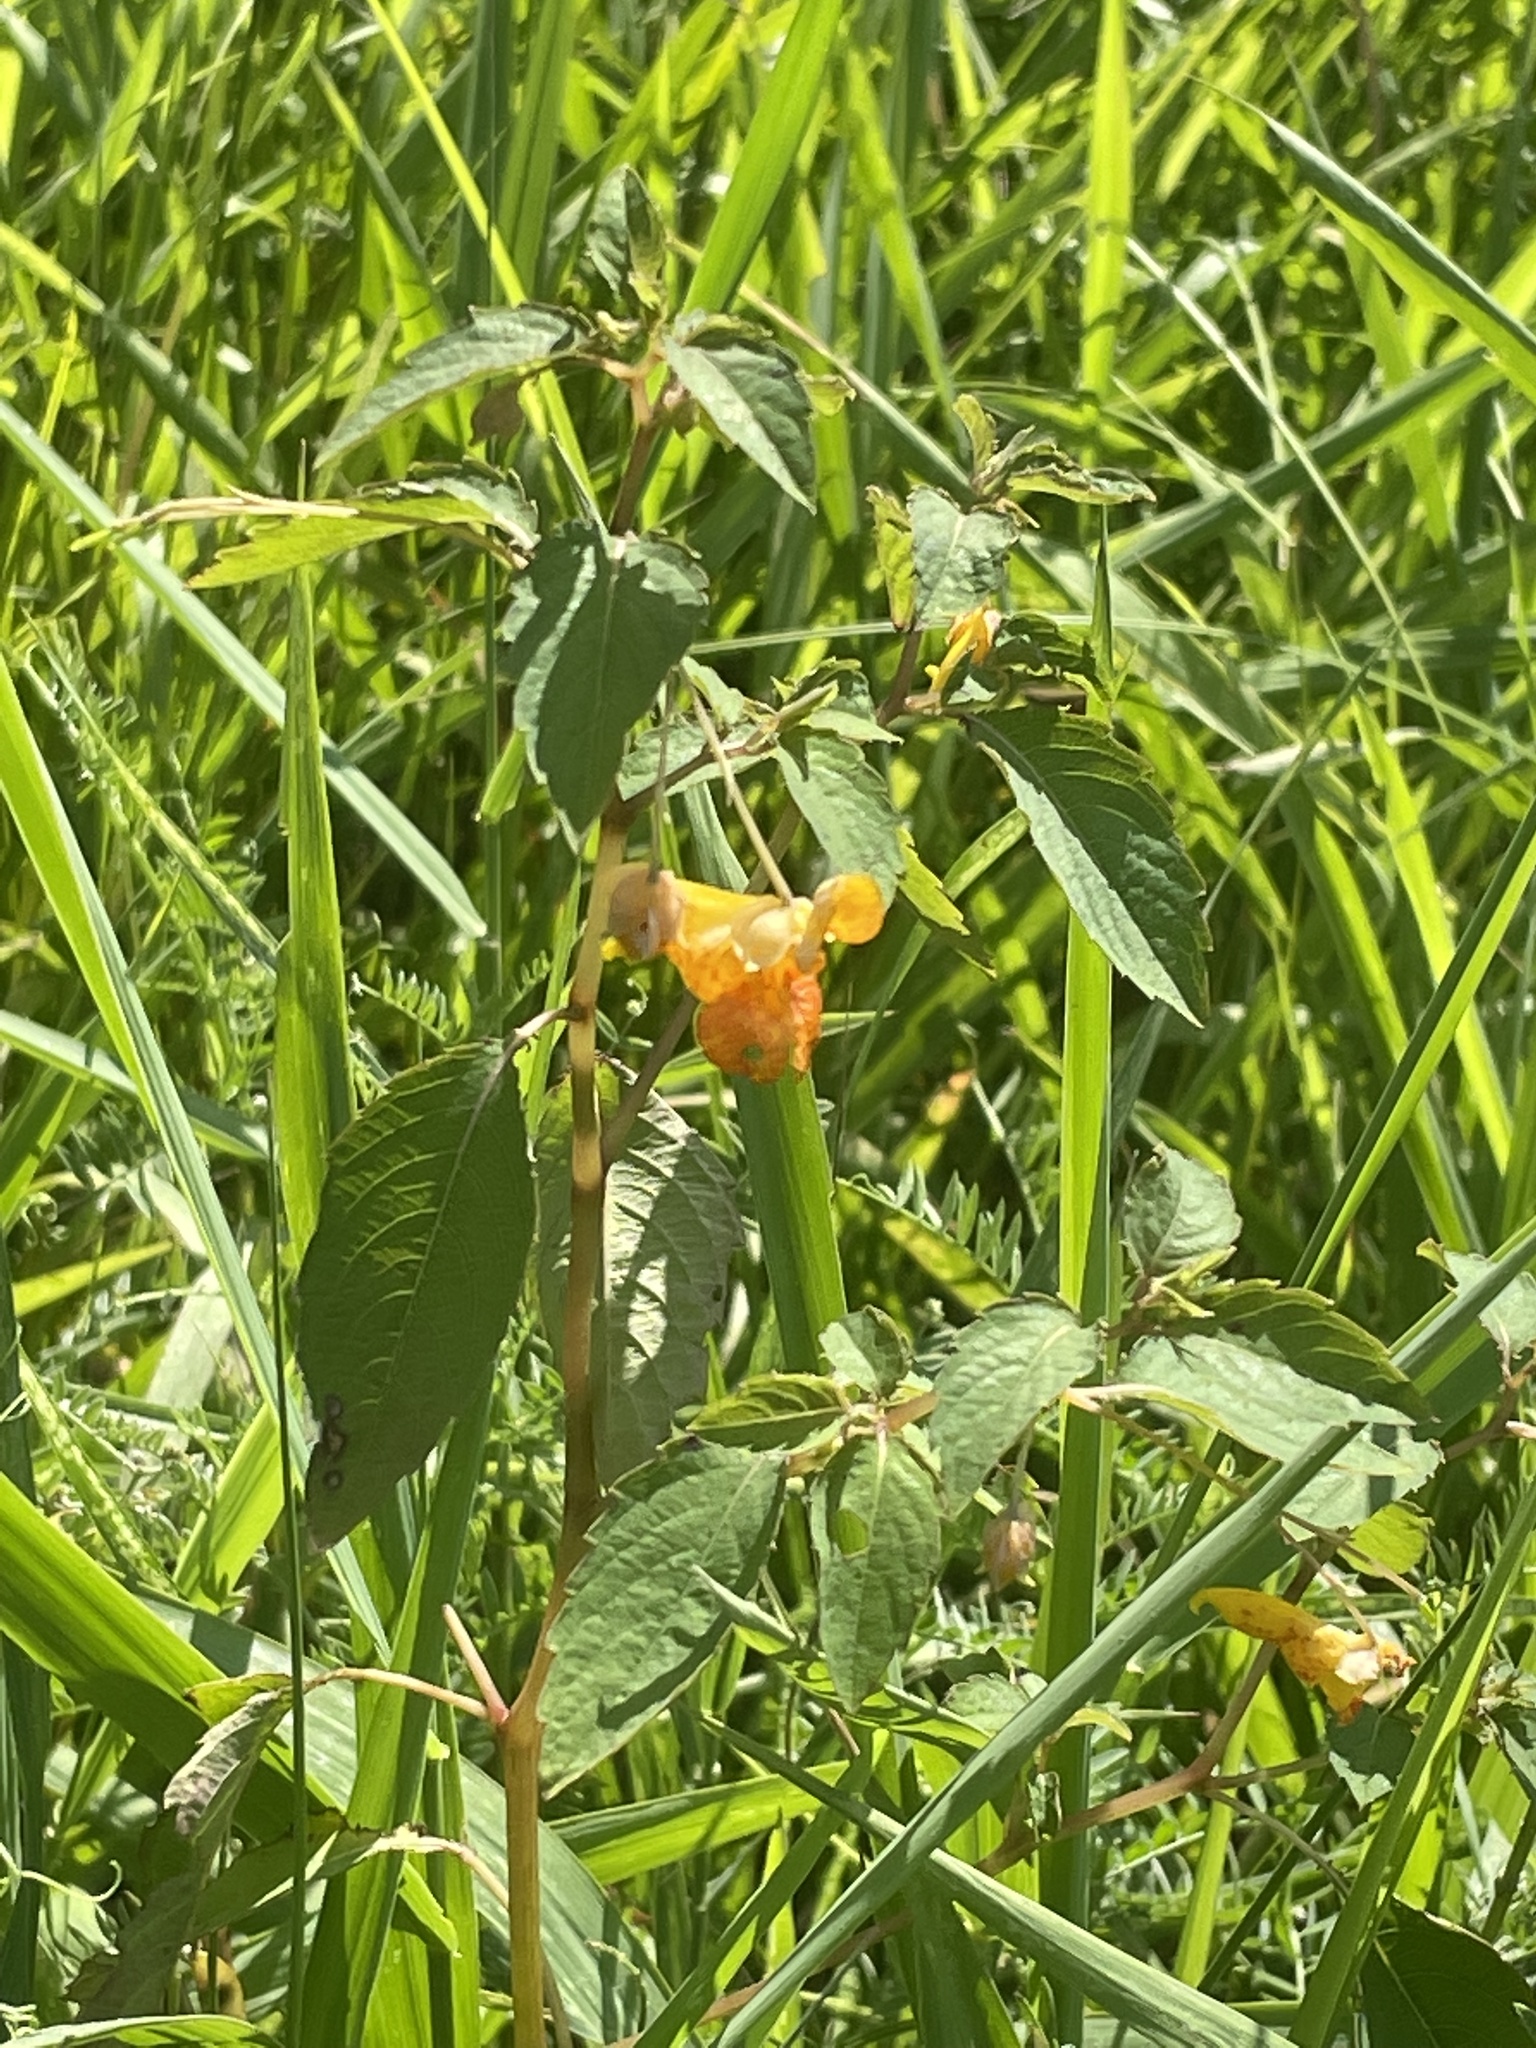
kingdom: Plantae
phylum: Tracheophyta
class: Magnoliopsida
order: Ericales
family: Balsaminaceae
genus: Impatiens
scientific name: Impatiens pallida
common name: Pale snapweed
